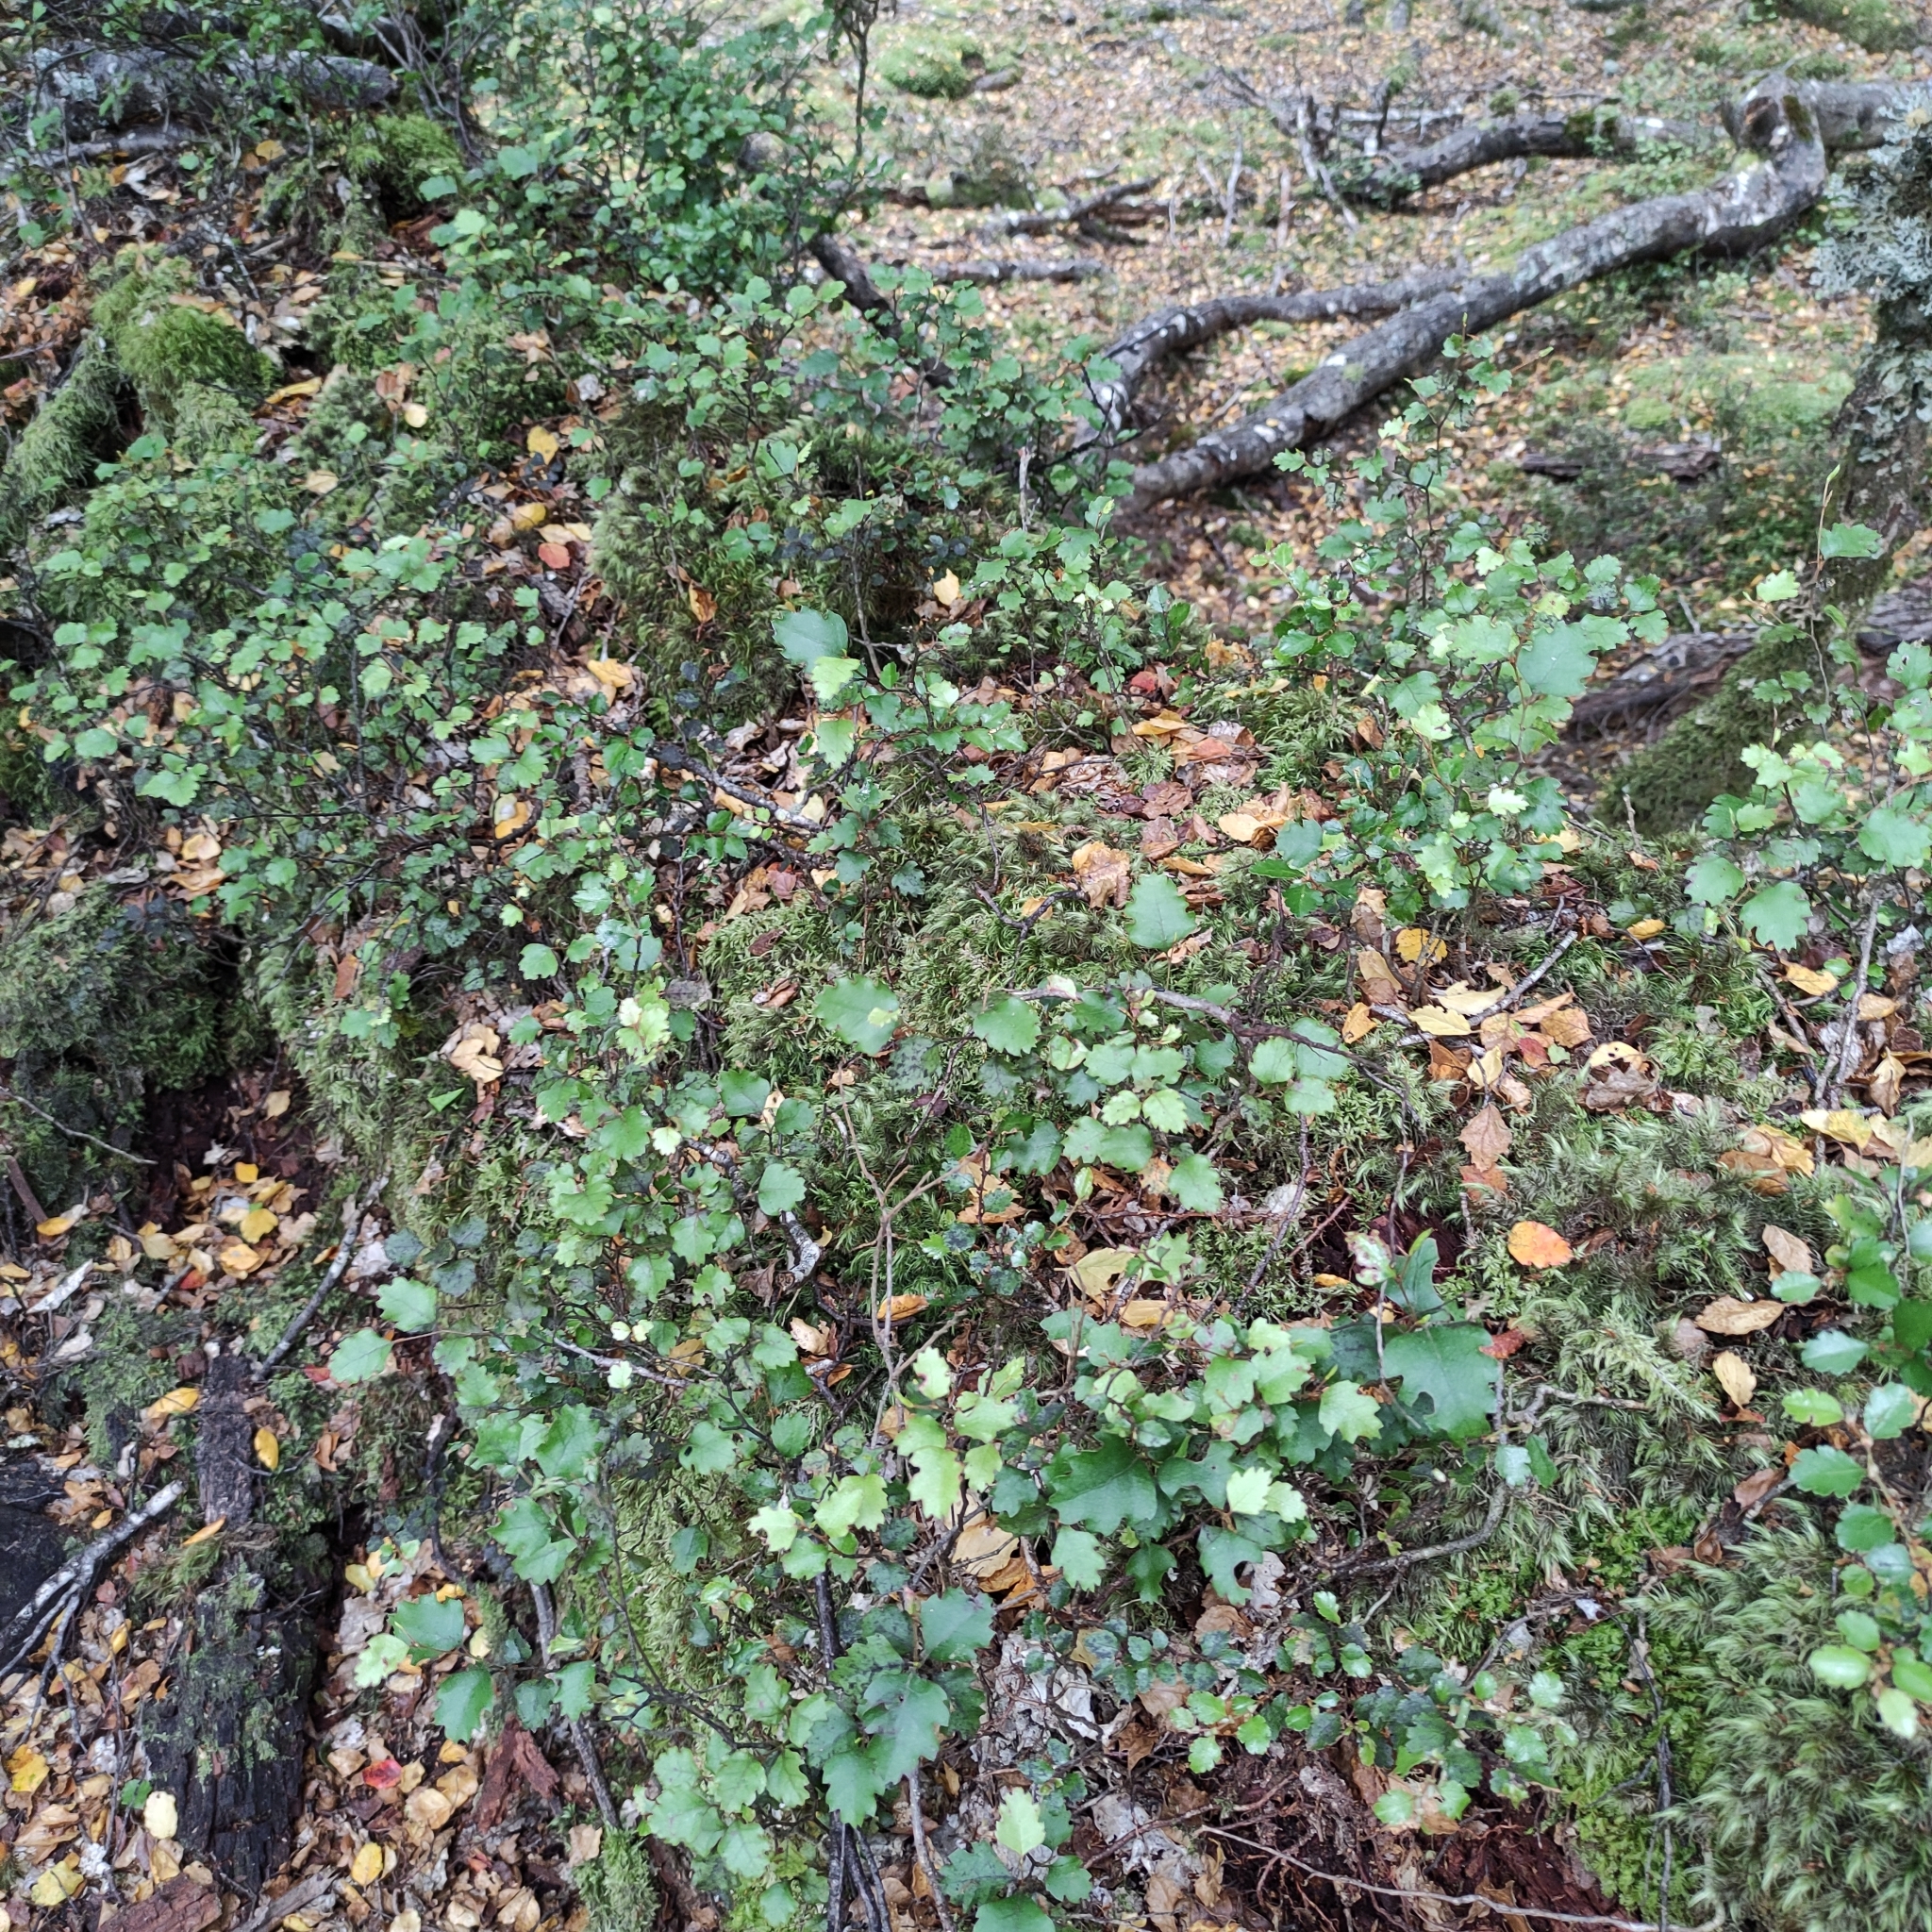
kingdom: Plantae
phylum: Tracheophyta
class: Magnoliopsida
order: Fagales
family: Nothofagaceae
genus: Nothofagus
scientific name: Nothofagus fusca
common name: Red beech
